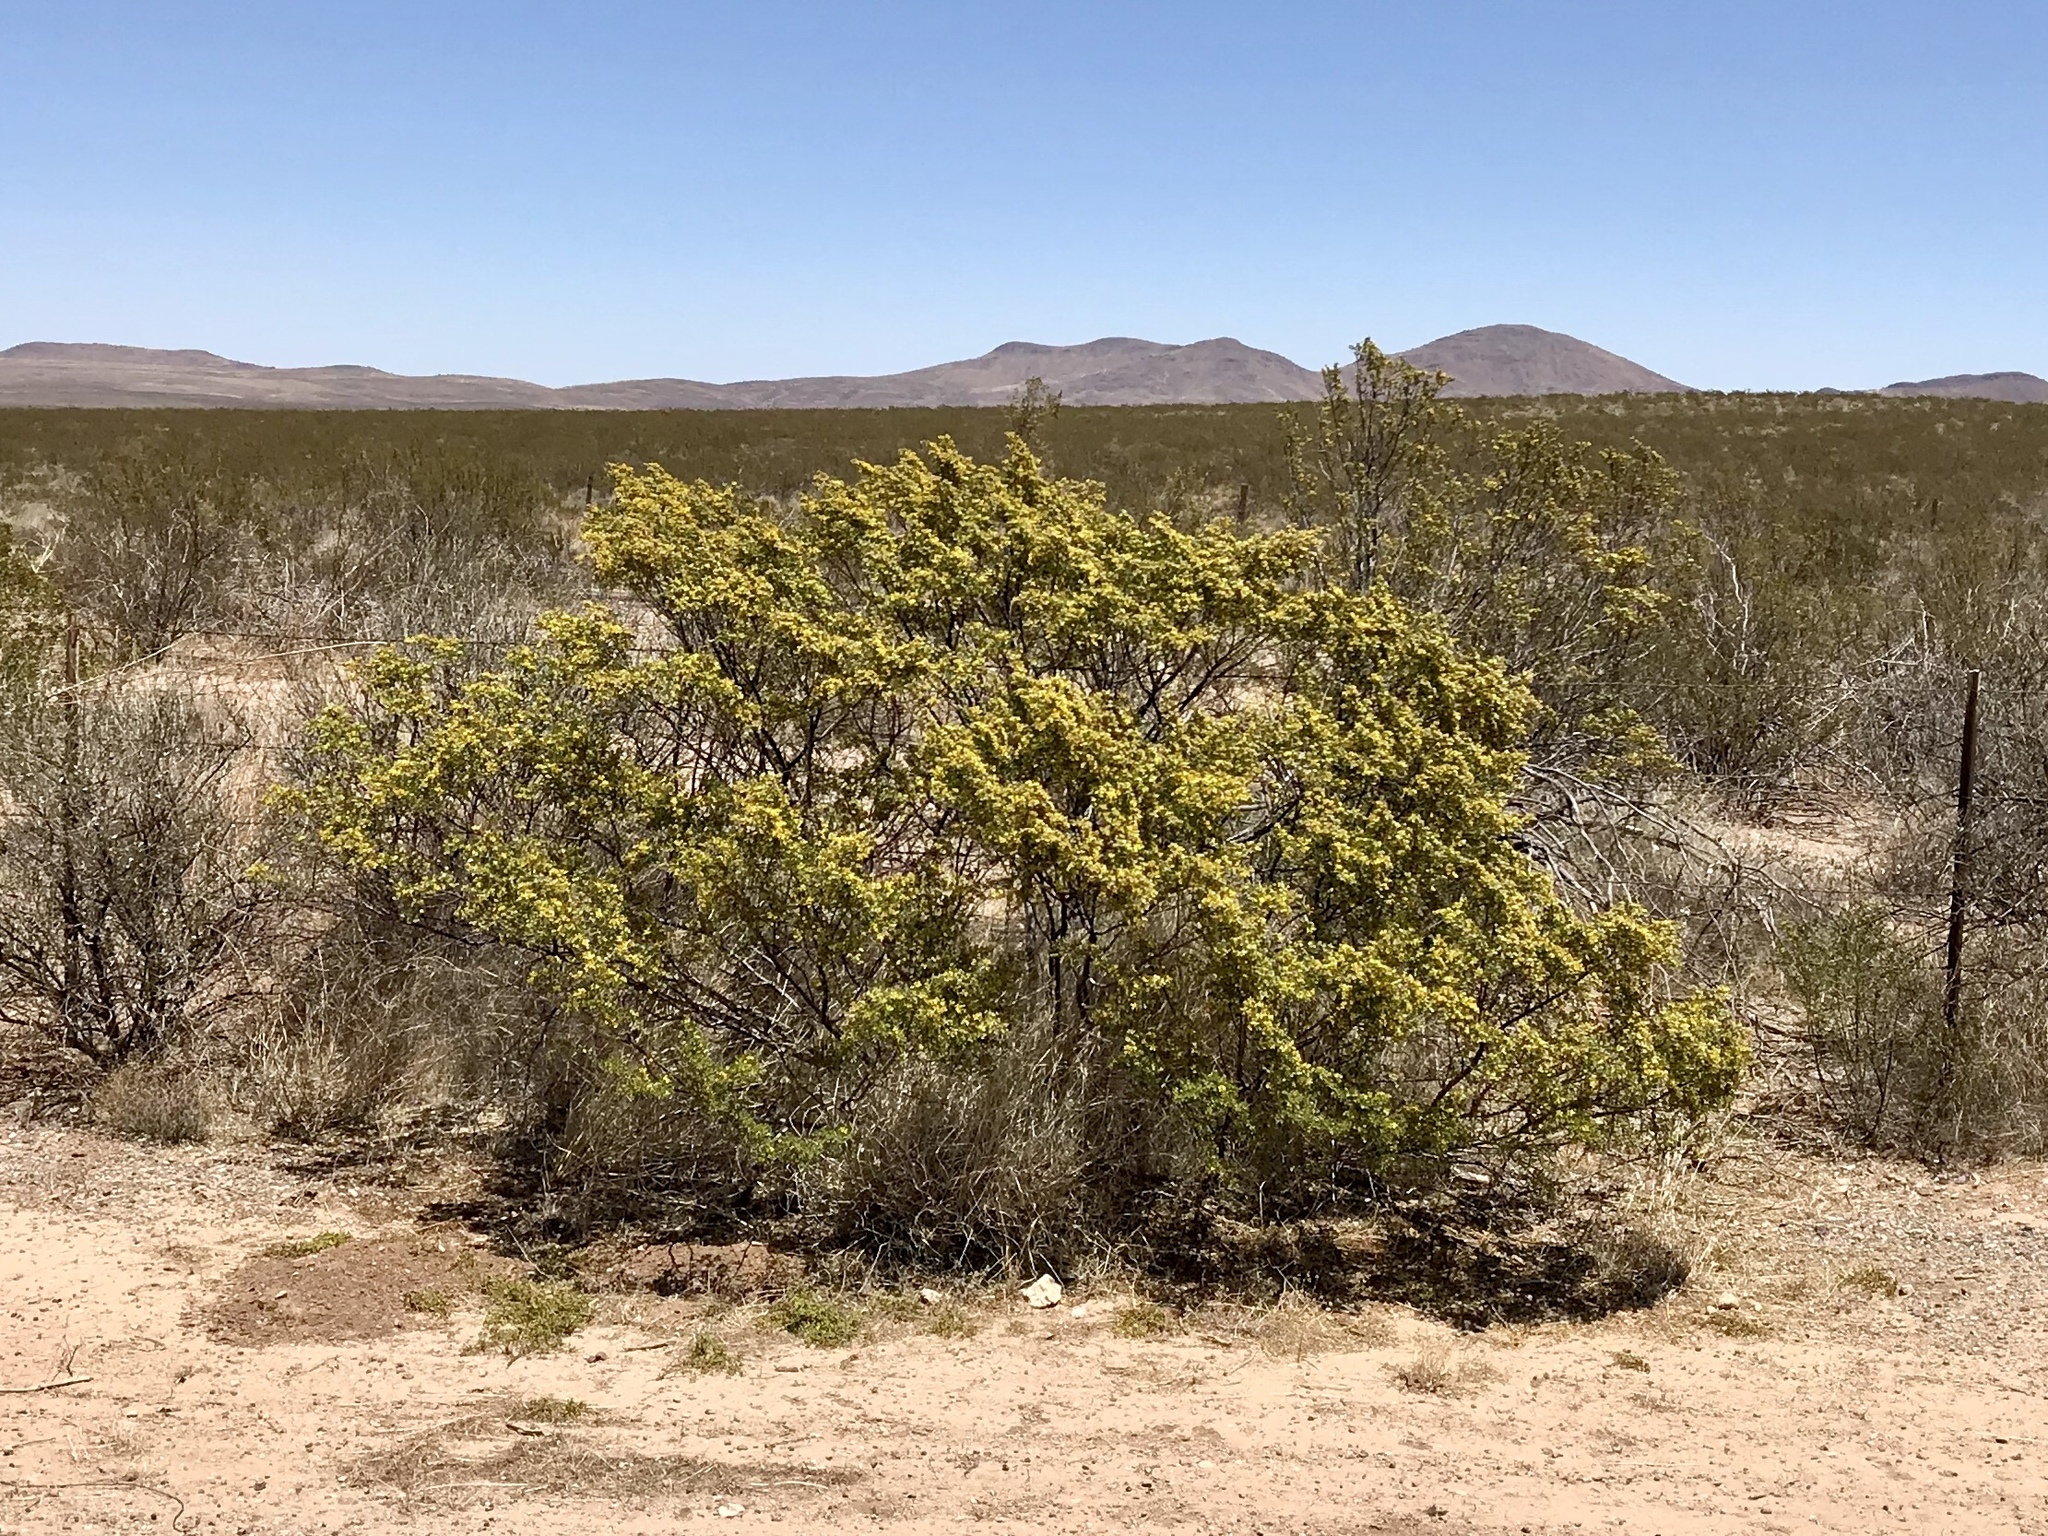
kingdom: Plantae
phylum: Tracheophyta
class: Magnoliopsida
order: Zygophyllales
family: Zygophyllaceae
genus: Larrea
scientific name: Larrea tridentata
